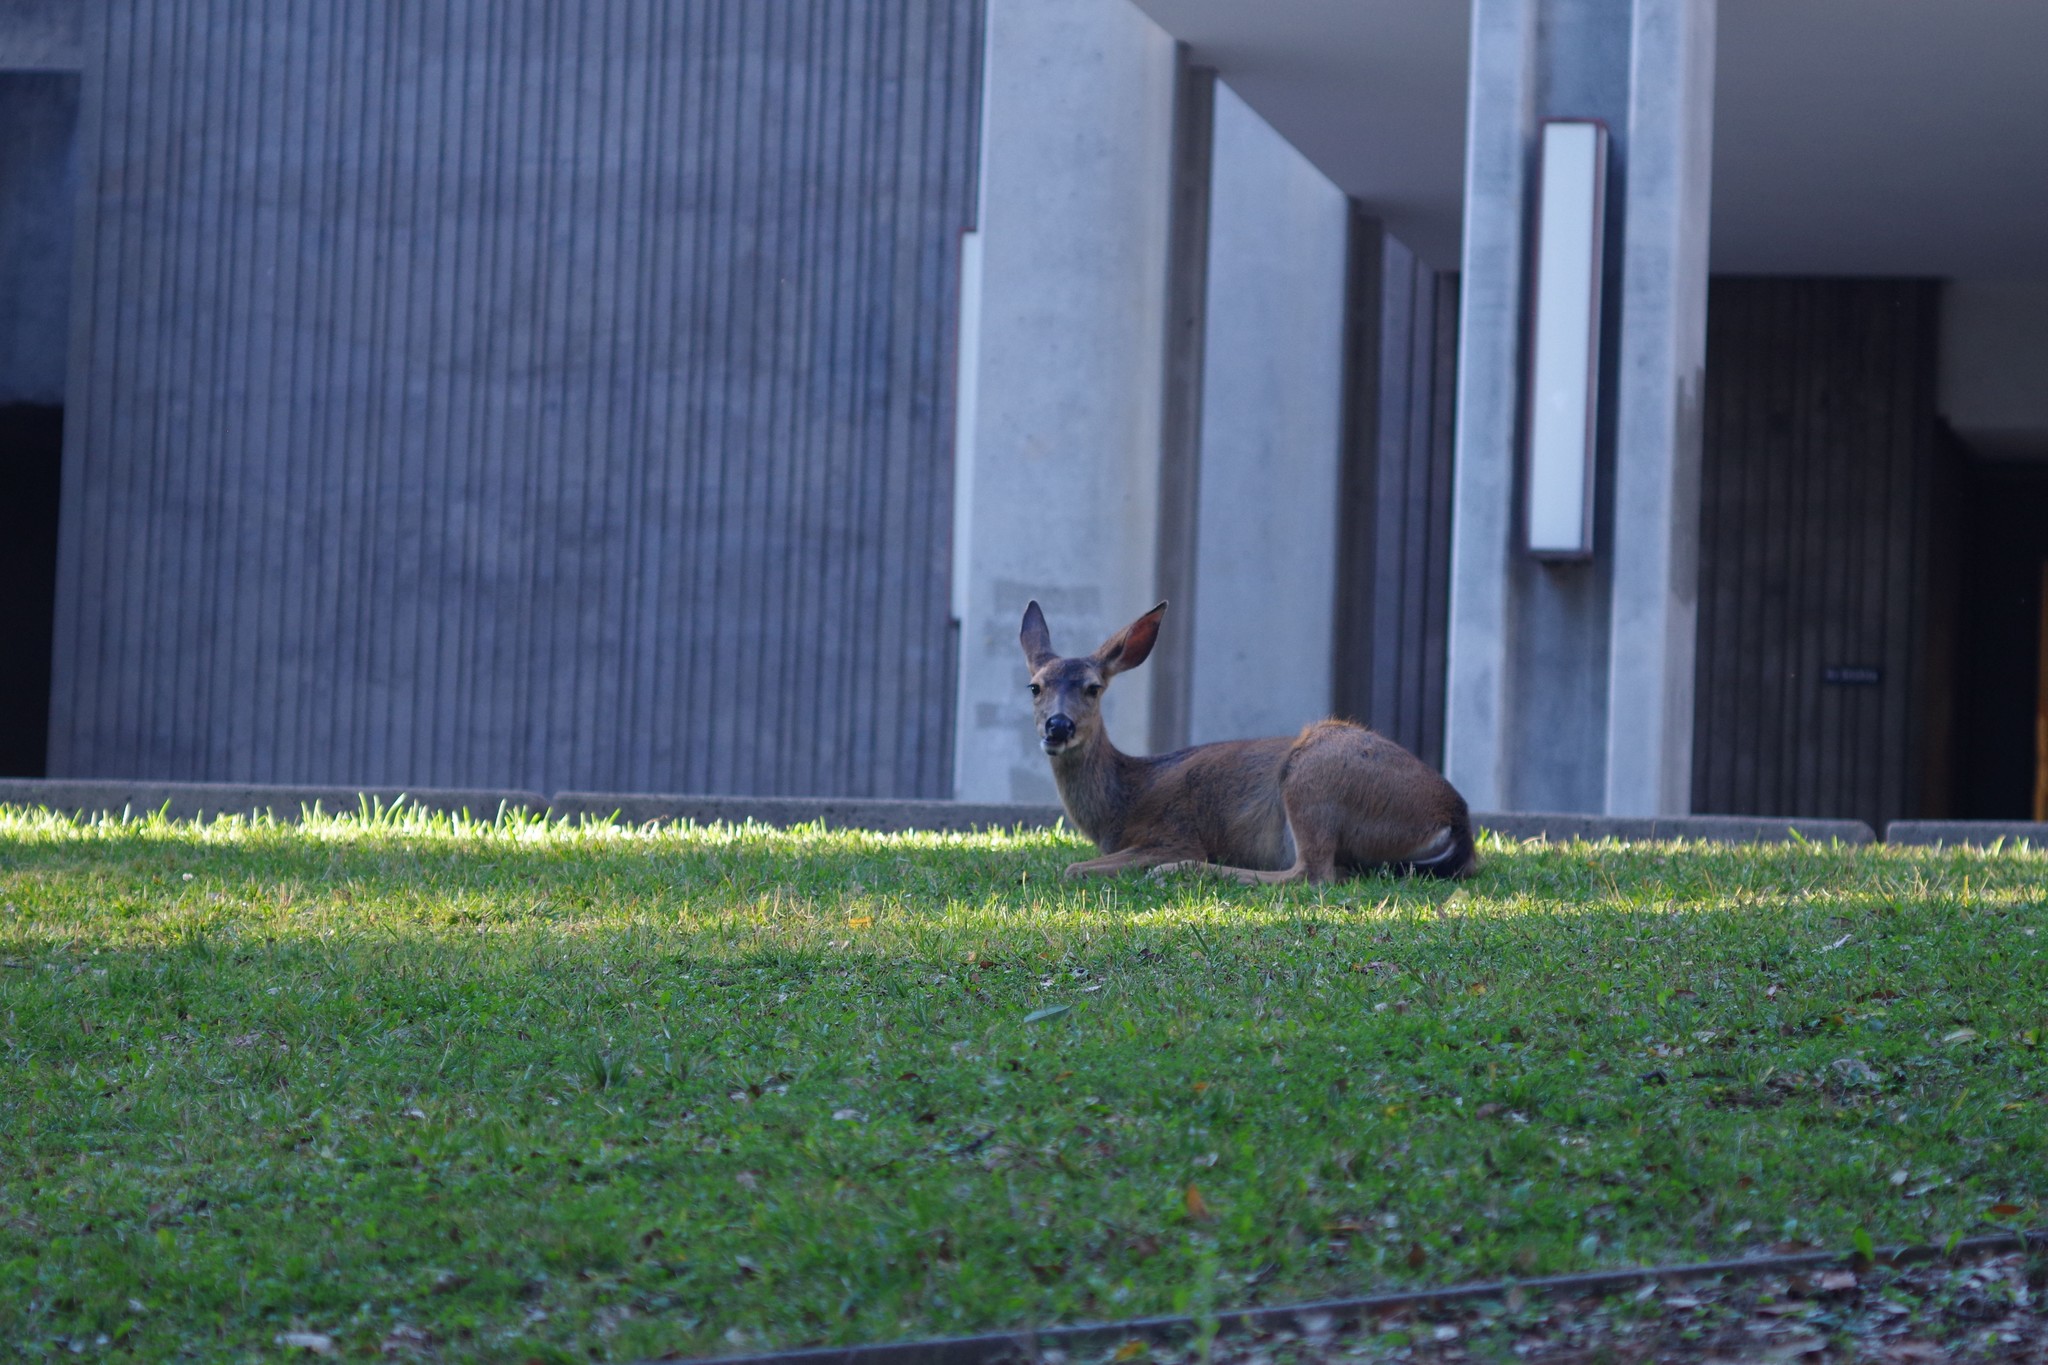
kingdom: Animalia
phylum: Chordata
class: Mammalia
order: Artiodactyla
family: Cervidae
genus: Odocoileus
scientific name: Odocoileus hemionus
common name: Mule deer
